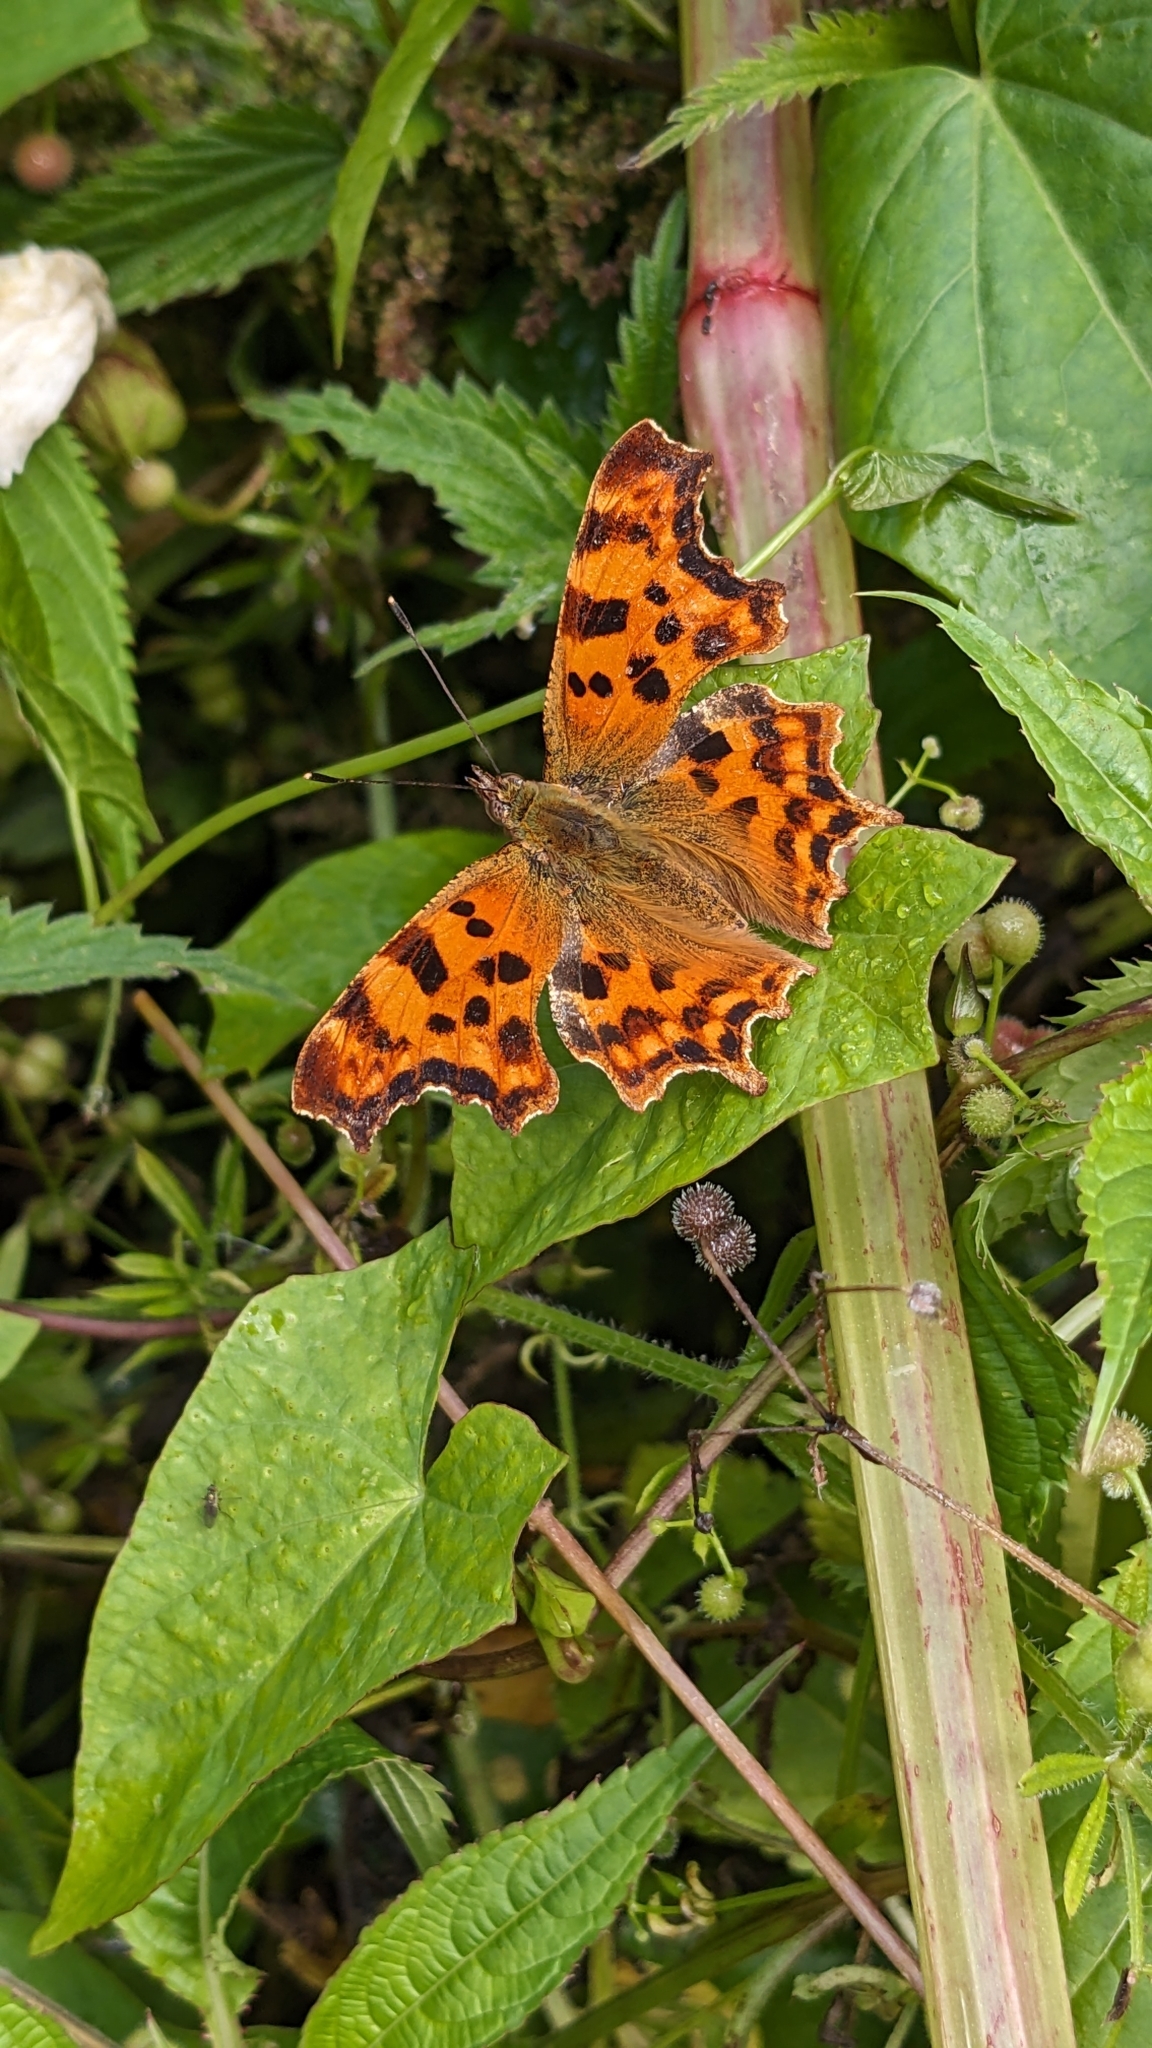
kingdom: Animalia
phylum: Arthropoda
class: Insecta
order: Lepidoptera
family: Nymphalidae
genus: Polygonia
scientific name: Polygonia c-album
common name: Comma
